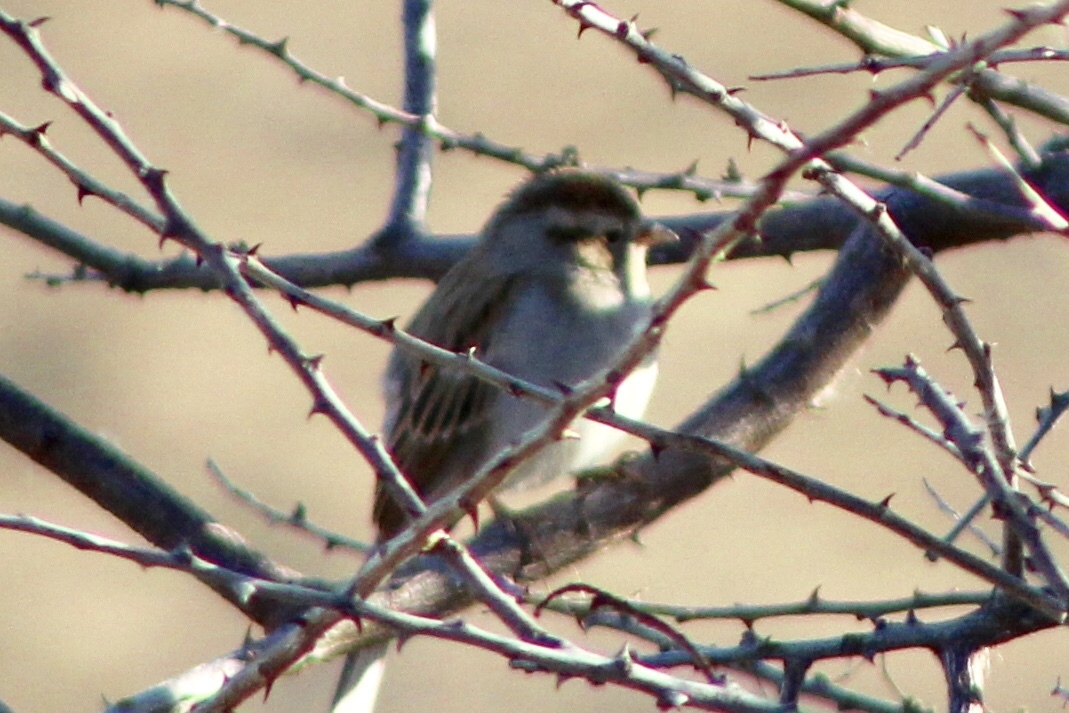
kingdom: Animalia
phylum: Chordata
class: Aves
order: Passeriformes
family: Passerellidae
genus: Spizella
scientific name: Spizella passerina
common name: Chipping sparrow
